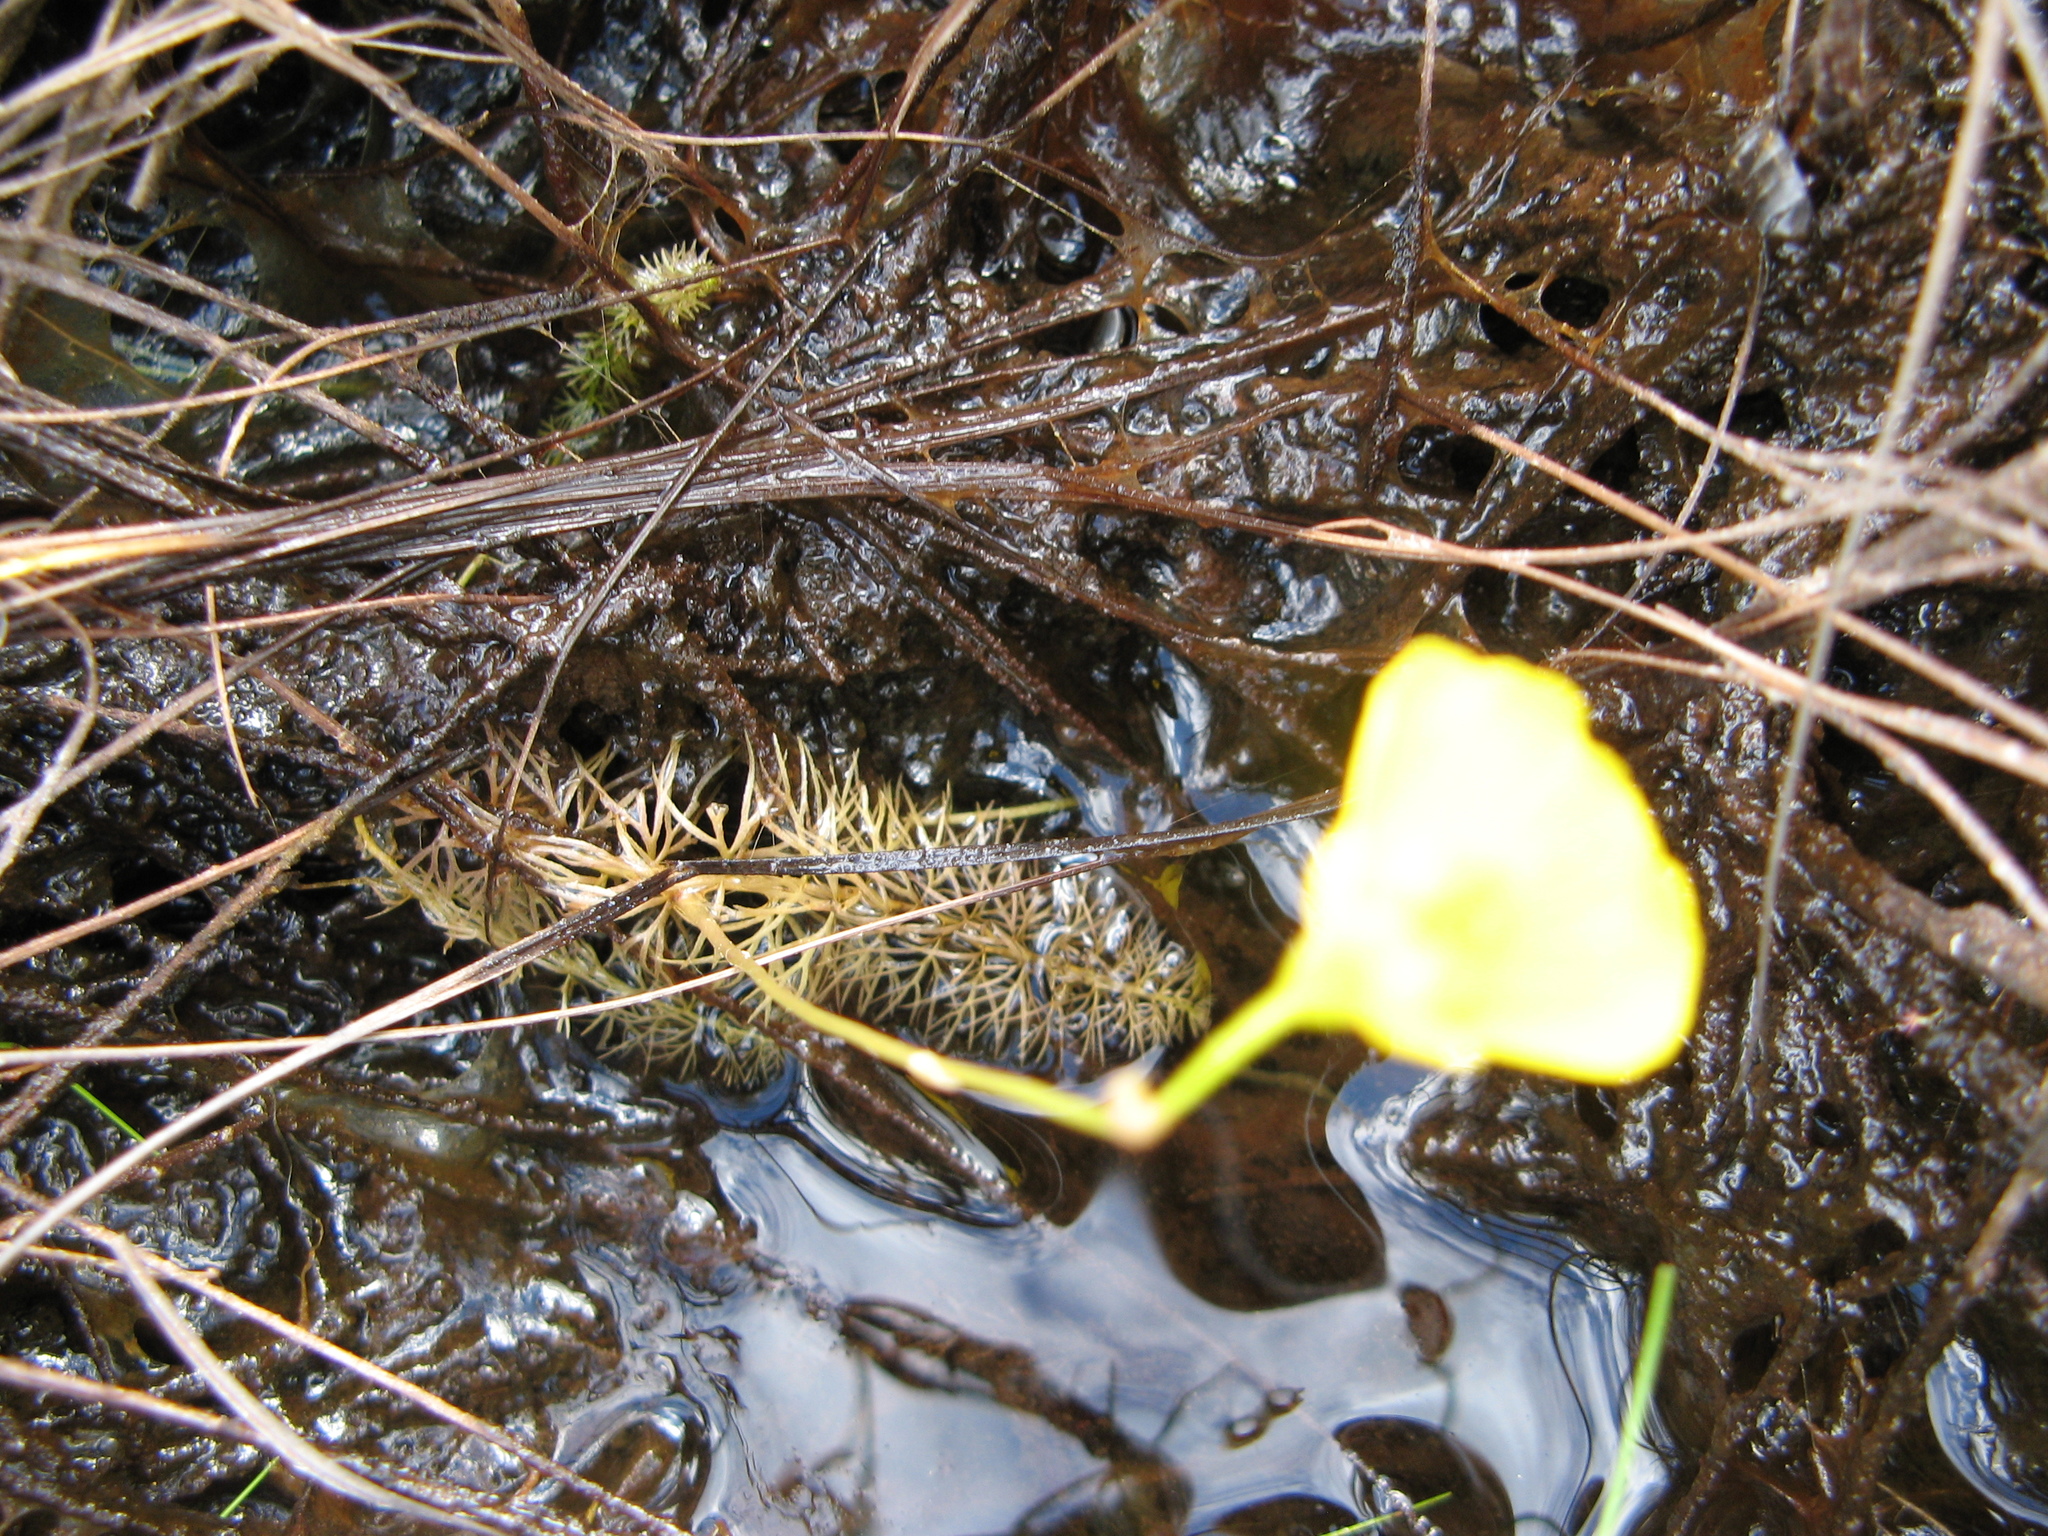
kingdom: Plantae
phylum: Tracheophyta
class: Magnoliopsida
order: Lamiales
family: Lentibulariaceae
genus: Utricularia
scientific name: Utricularia intermedia
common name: Intermediate bladderwort
